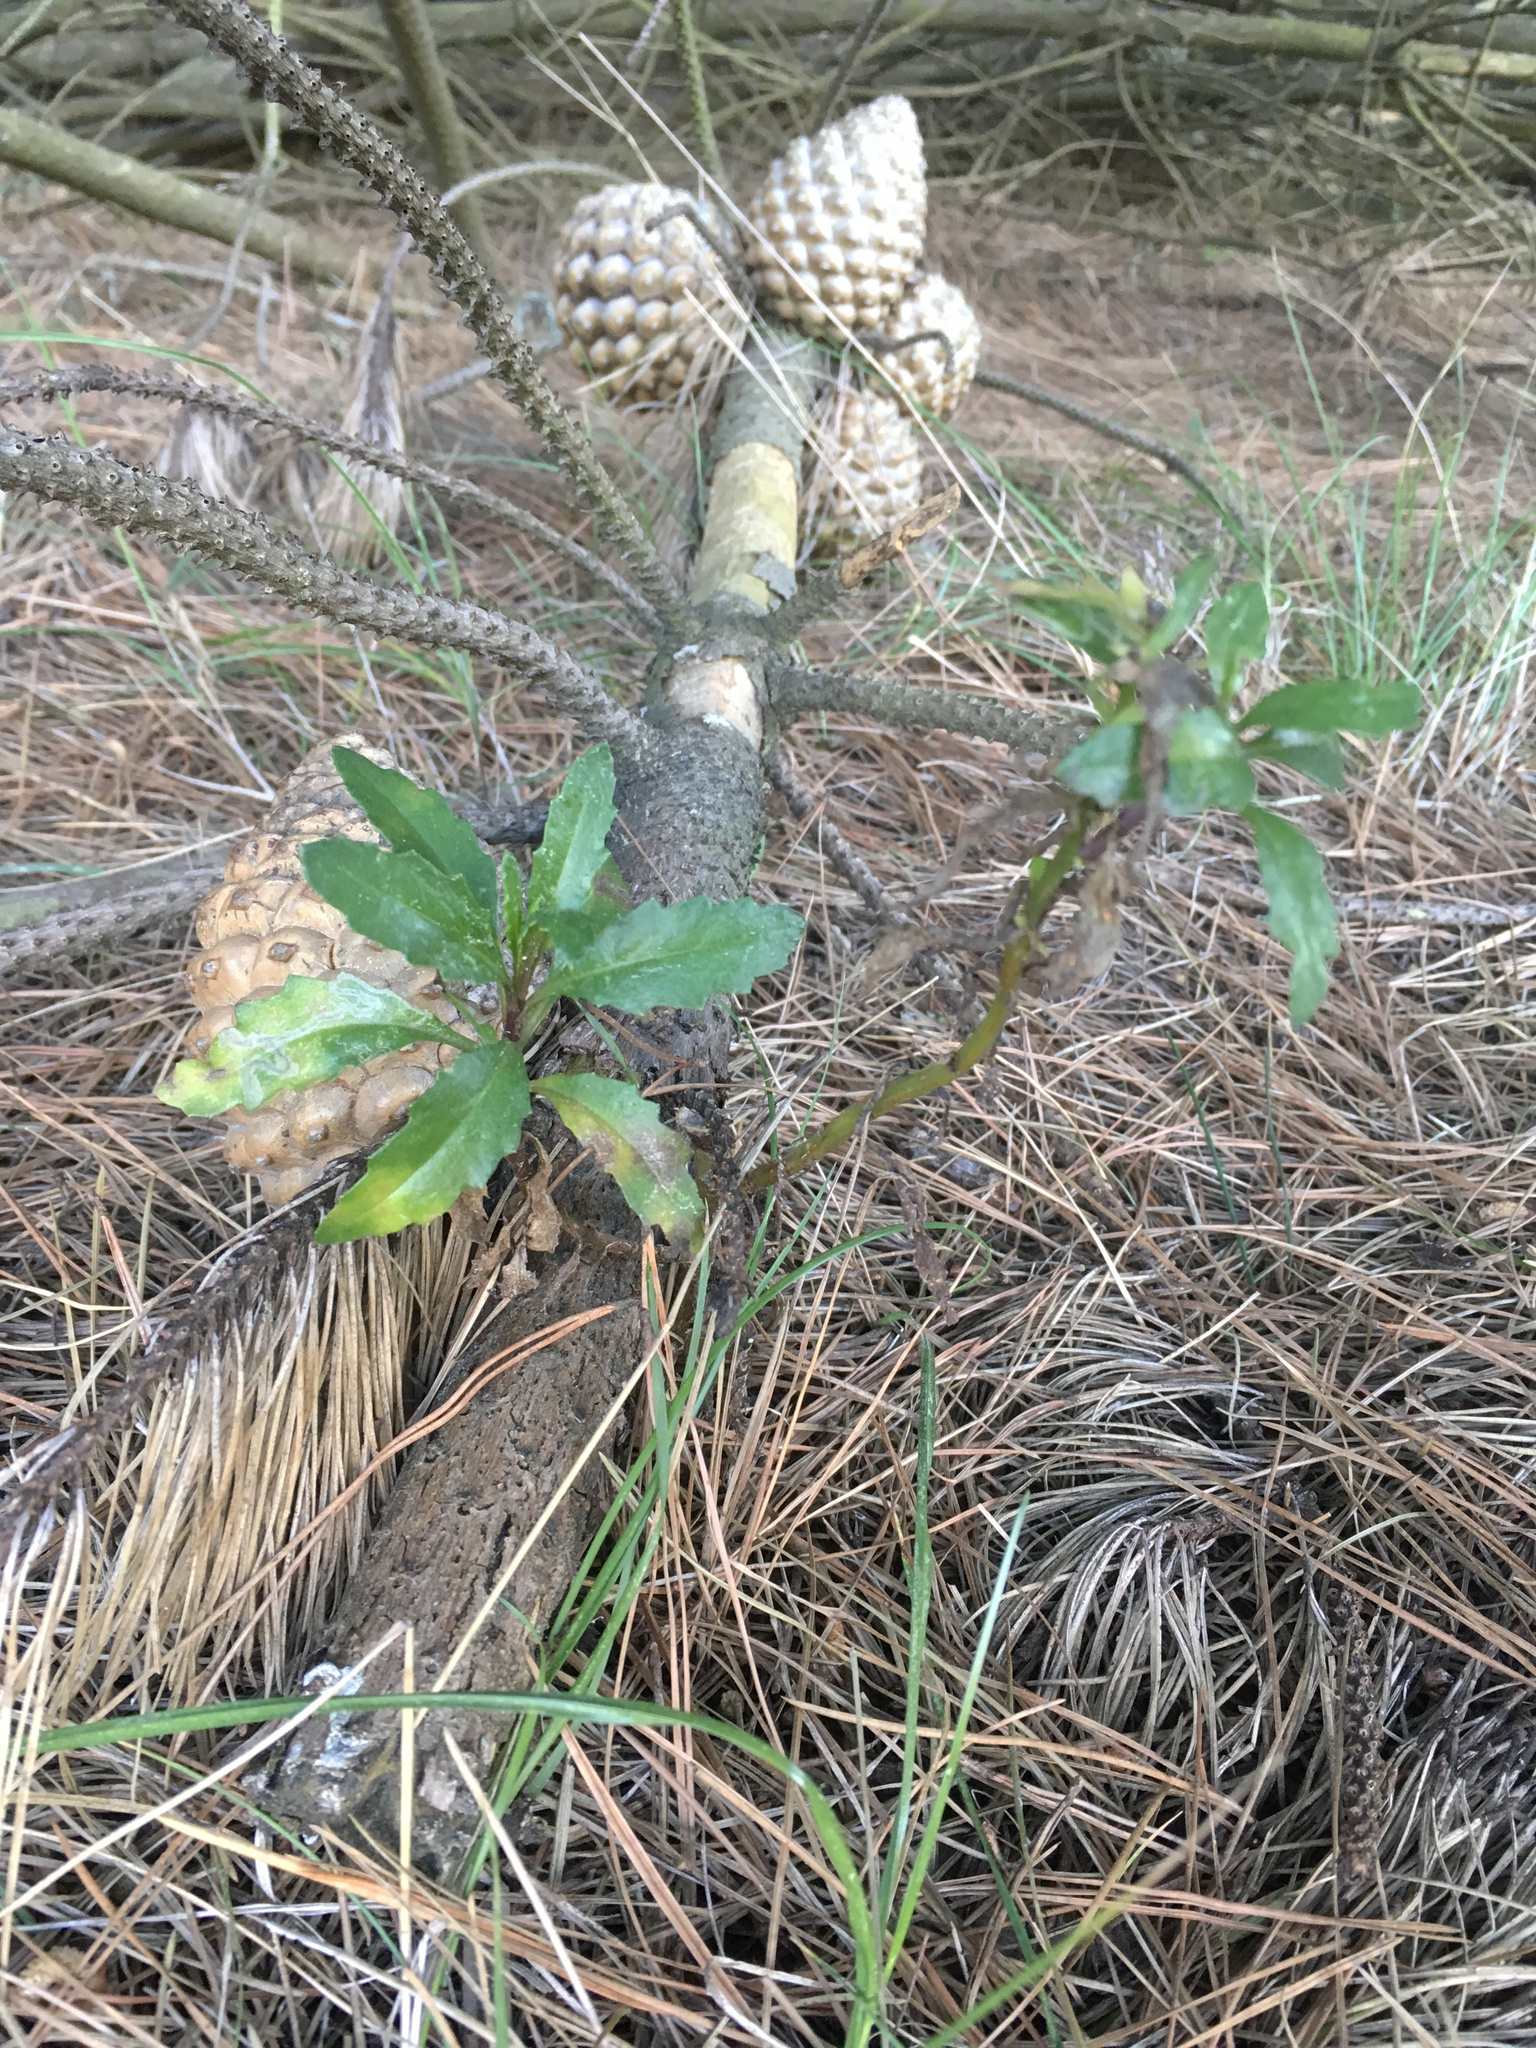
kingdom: Plantae
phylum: Tracheophyta
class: Magnoliopsida
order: Asterales
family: Asteraceae
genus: Senecio
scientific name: Senecio matatini
